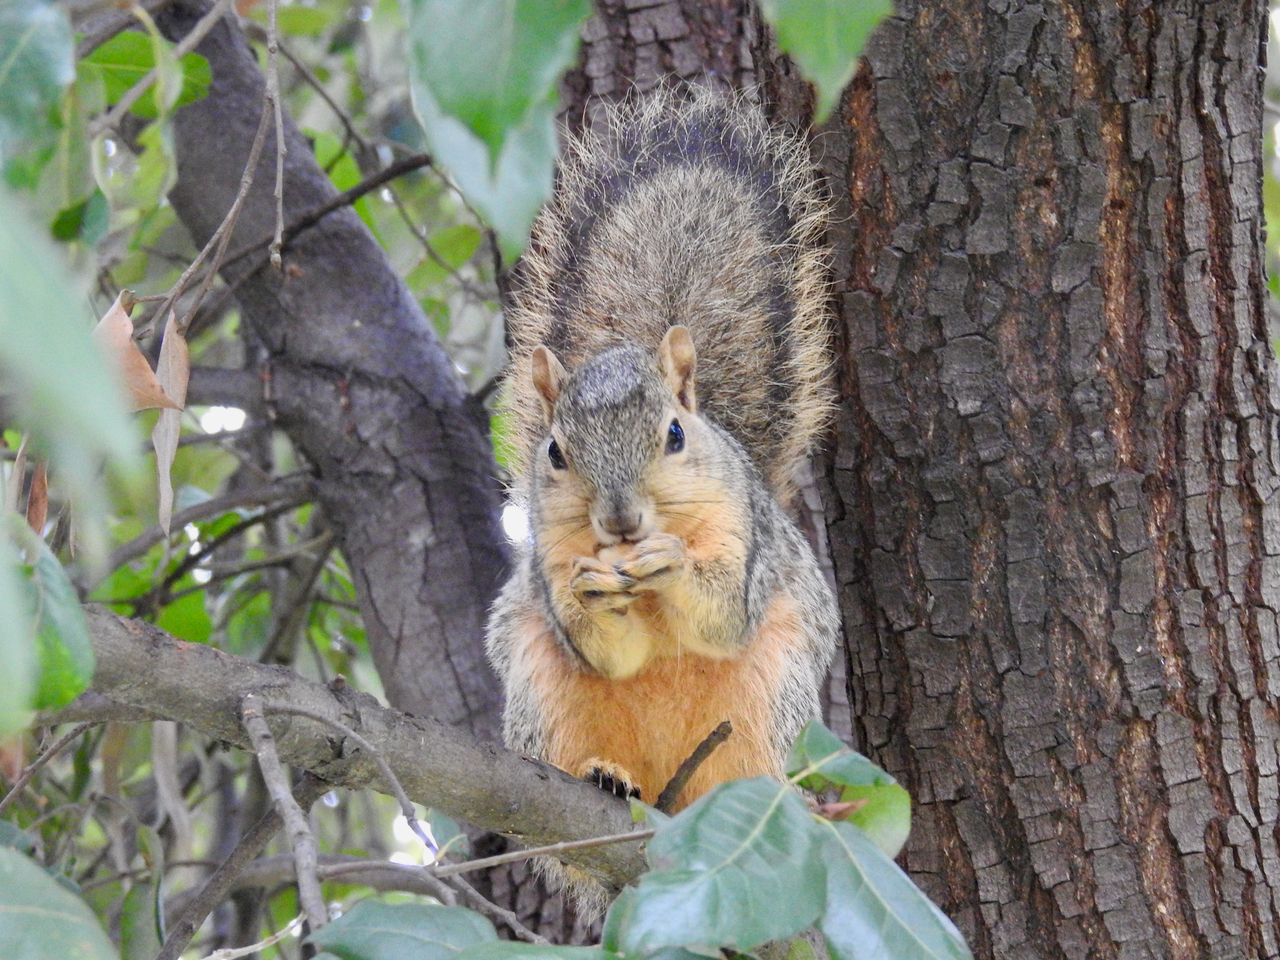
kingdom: Animalia
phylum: Chordata
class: Mammalia
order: Rodentia
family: Sciuridae
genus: Sciurus
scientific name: Sciurus niger
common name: Fox squirrel
